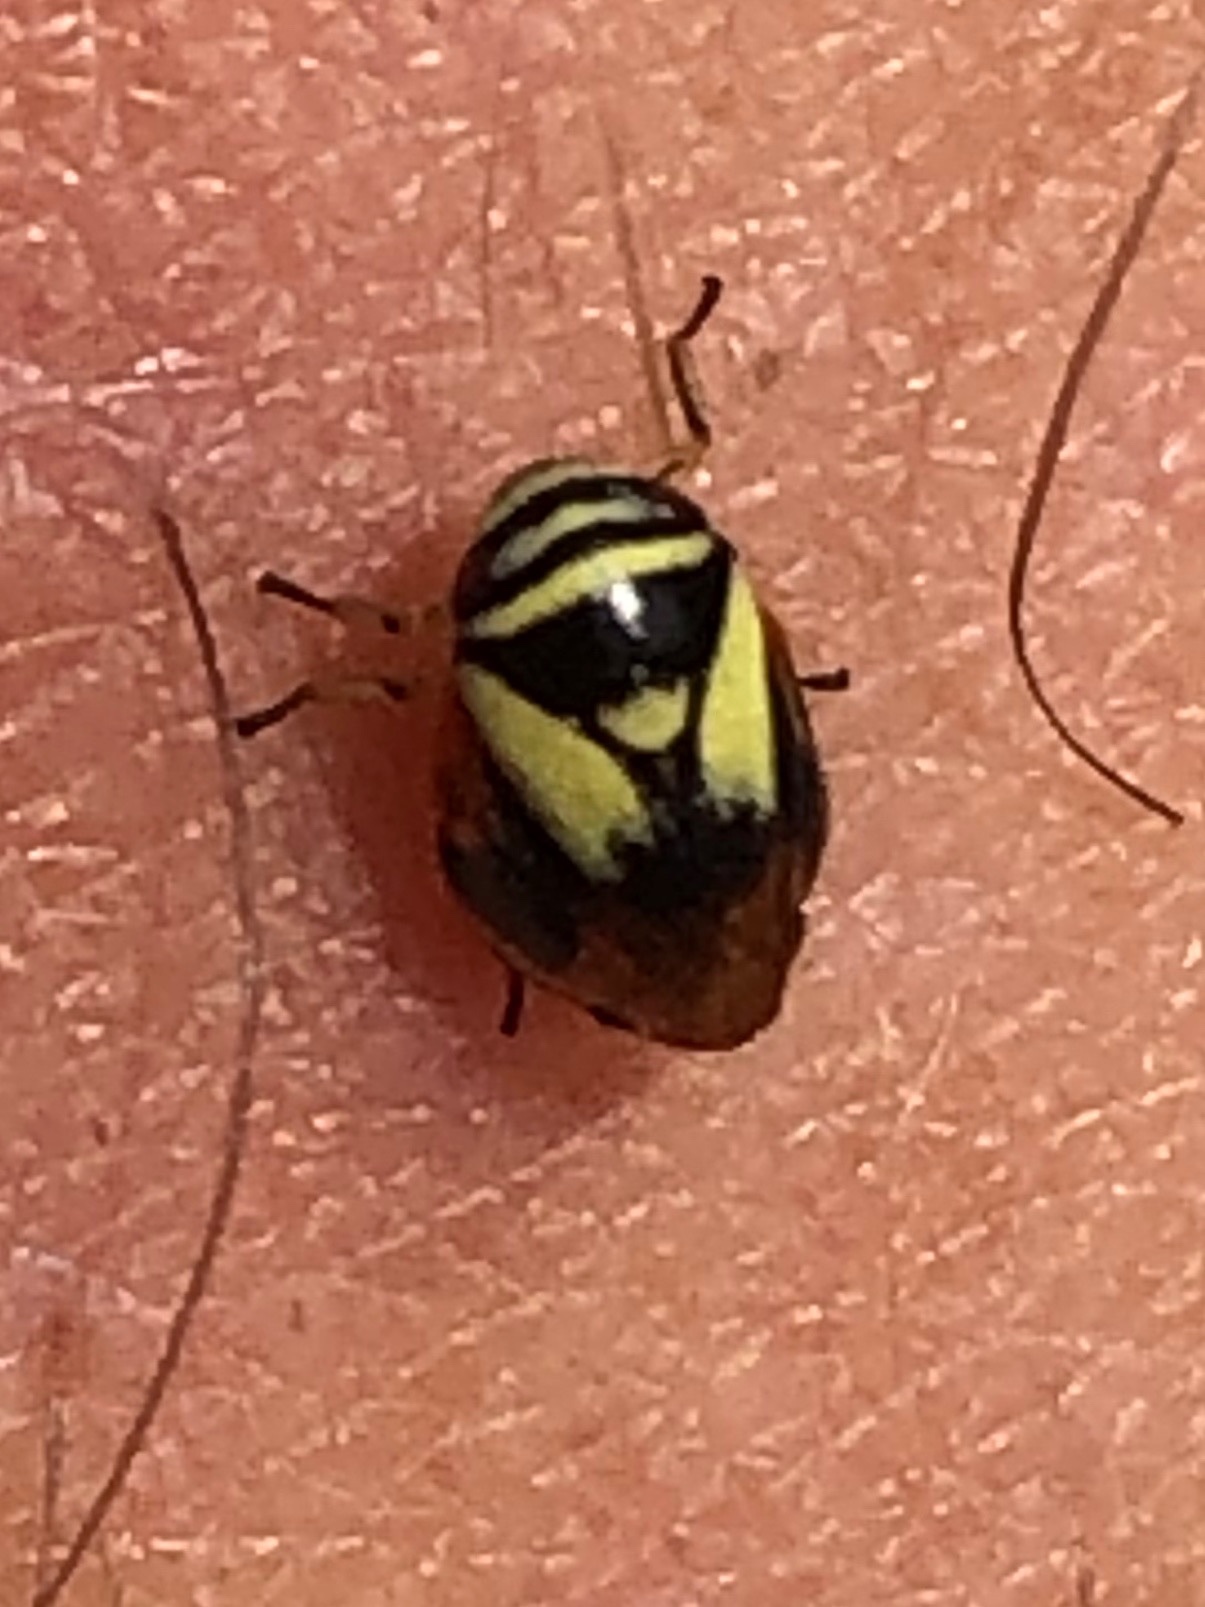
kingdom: Animalia
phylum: Arthropoda
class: Insecta
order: Hemiptera
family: Clastopteridae
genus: Clastoptera
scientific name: Clastoptera proteus
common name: Dogwood spittlebug
